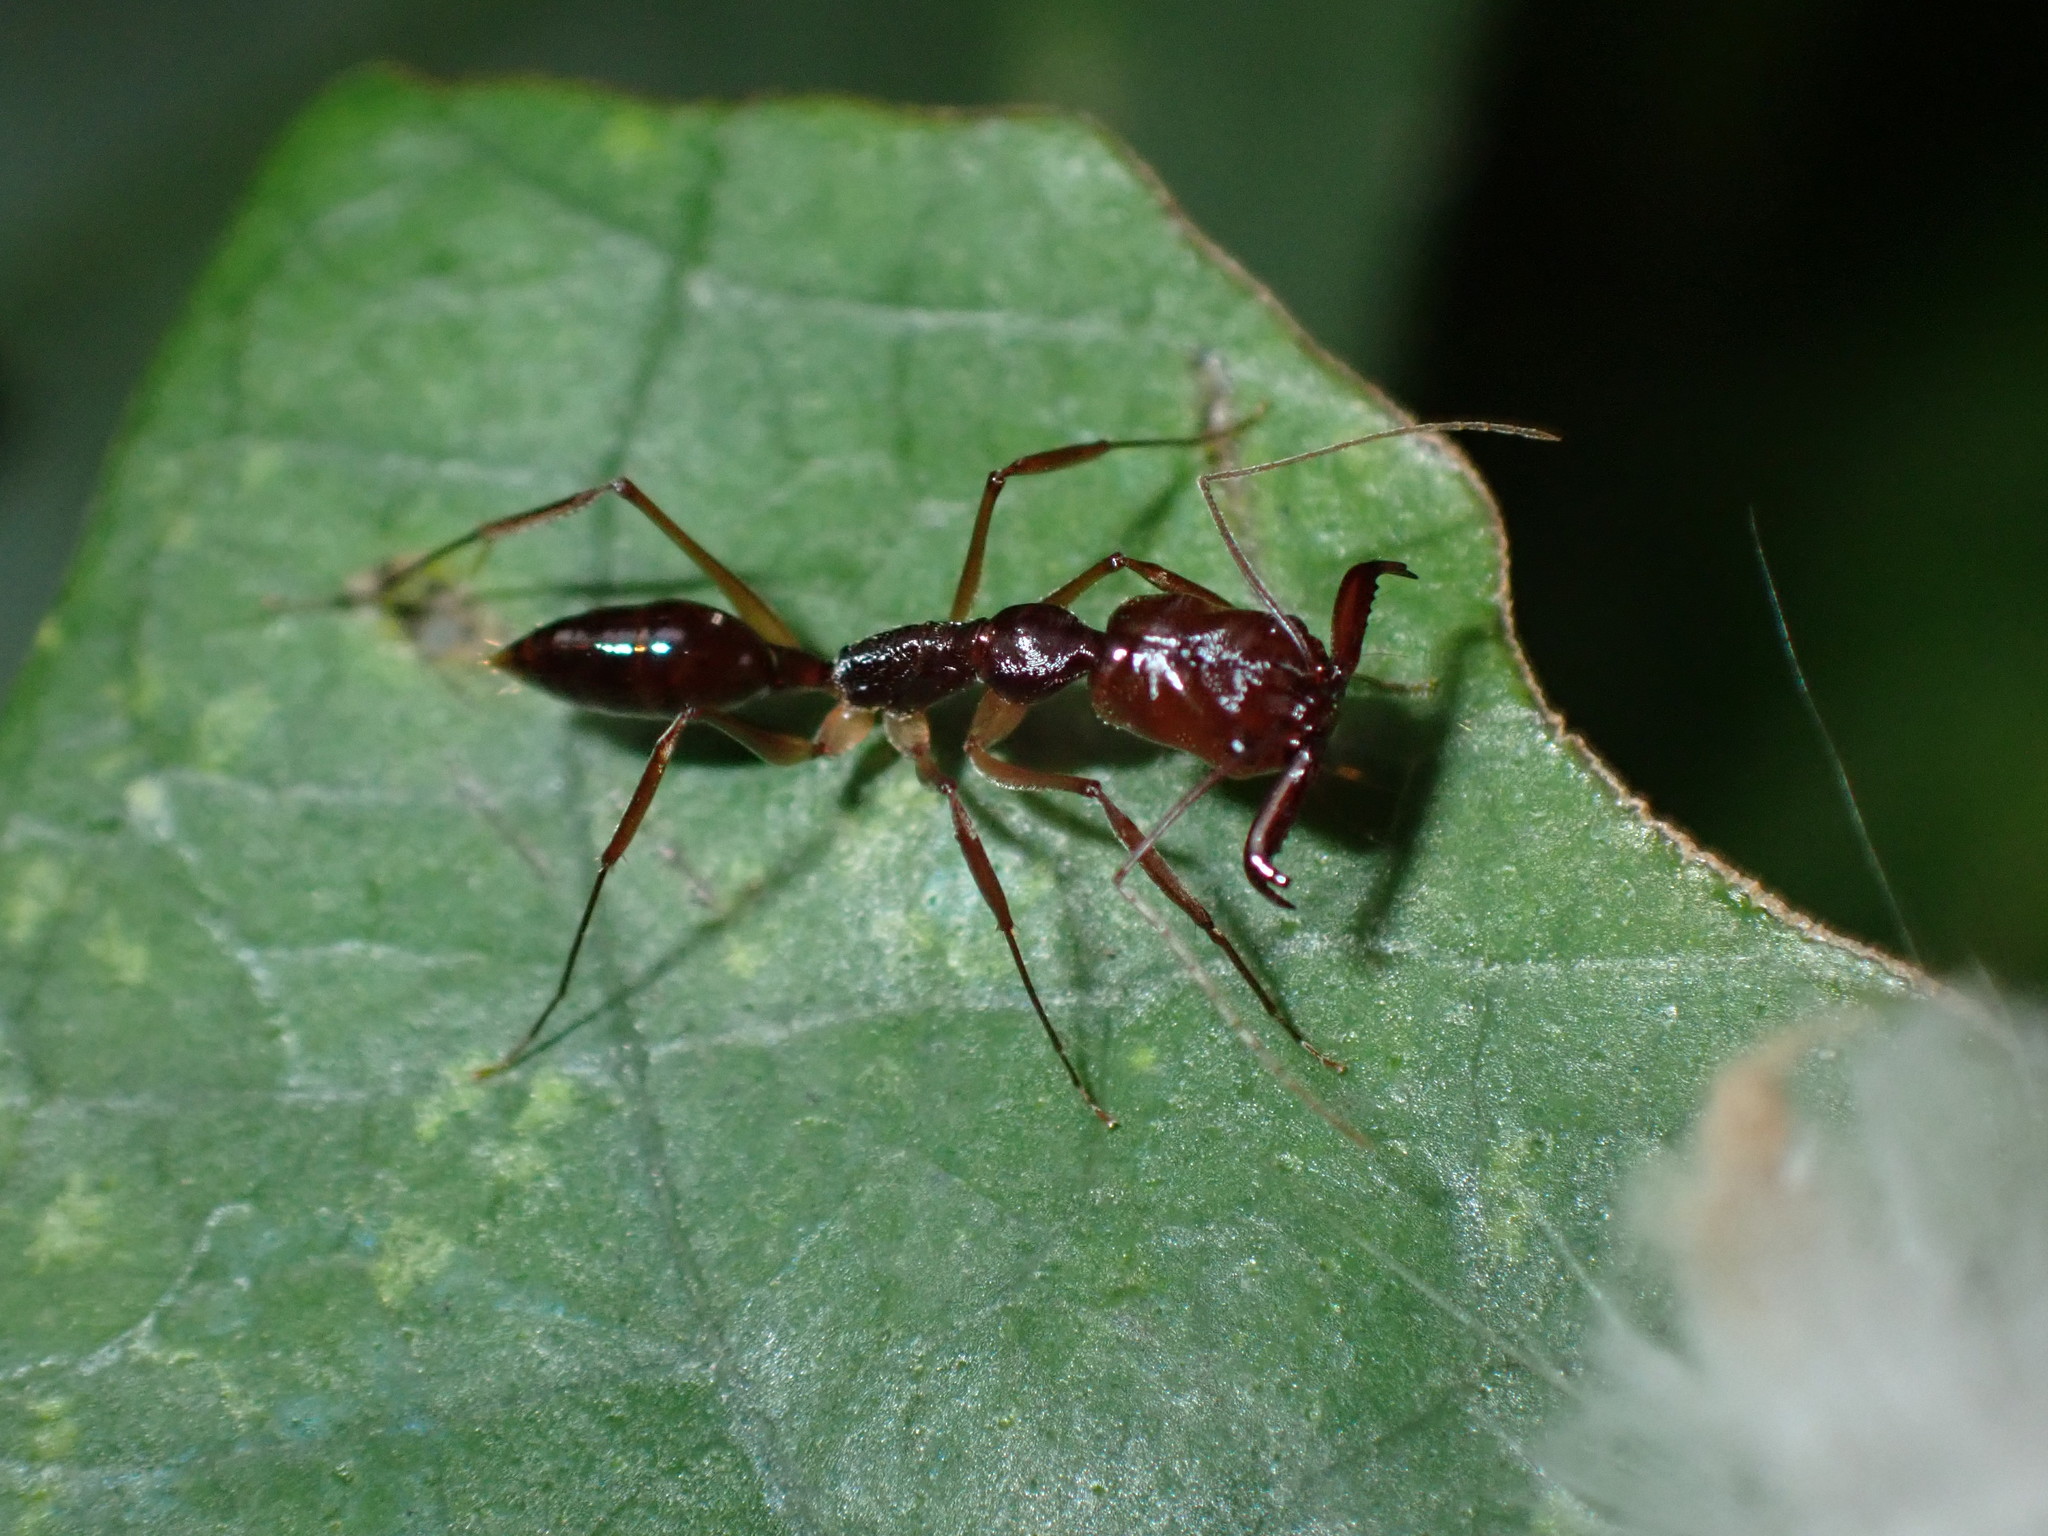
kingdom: Animalia
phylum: Arthropoda
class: Insecta
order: Hymenoptera
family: Formicidae
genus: Odontomachus
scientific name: Odontomachus rixosus
